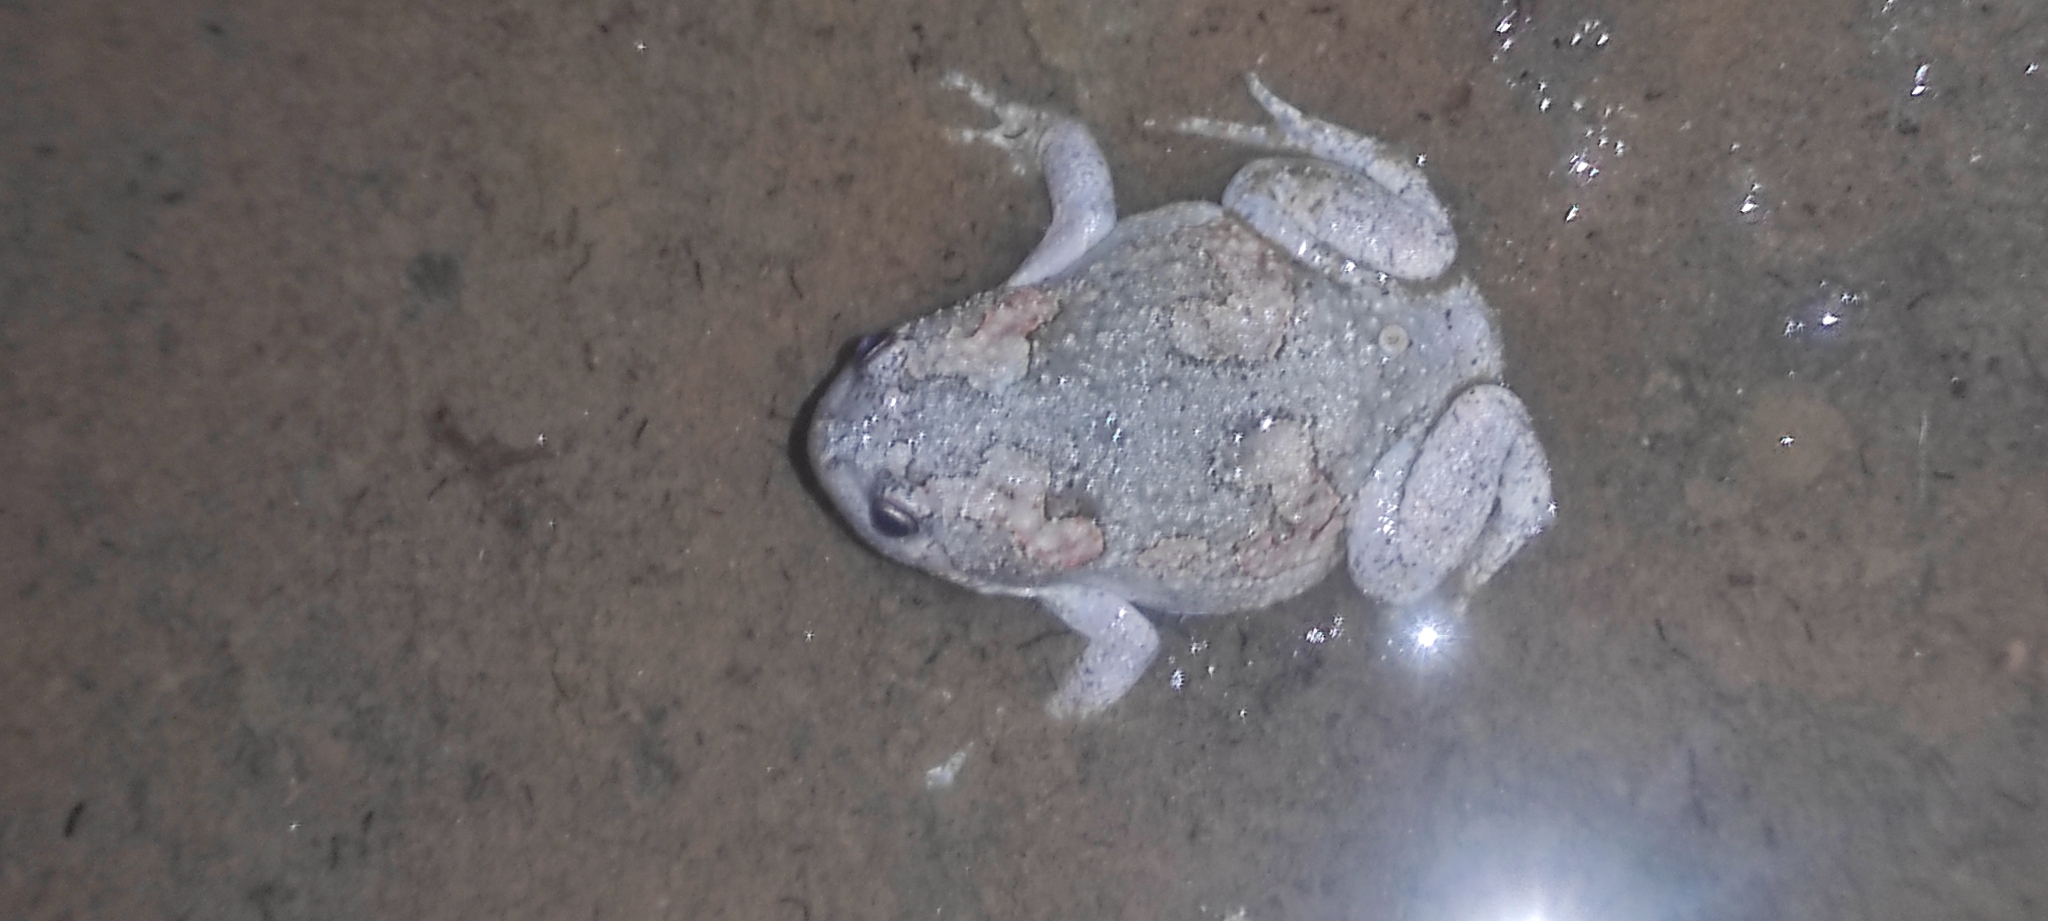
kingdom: Animalia
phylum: Chordata
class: Amphibia
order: Anura
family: Microhylidae
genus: Uperodon
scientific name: Uperodon taprobanicus
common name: Ceylon kaloula
